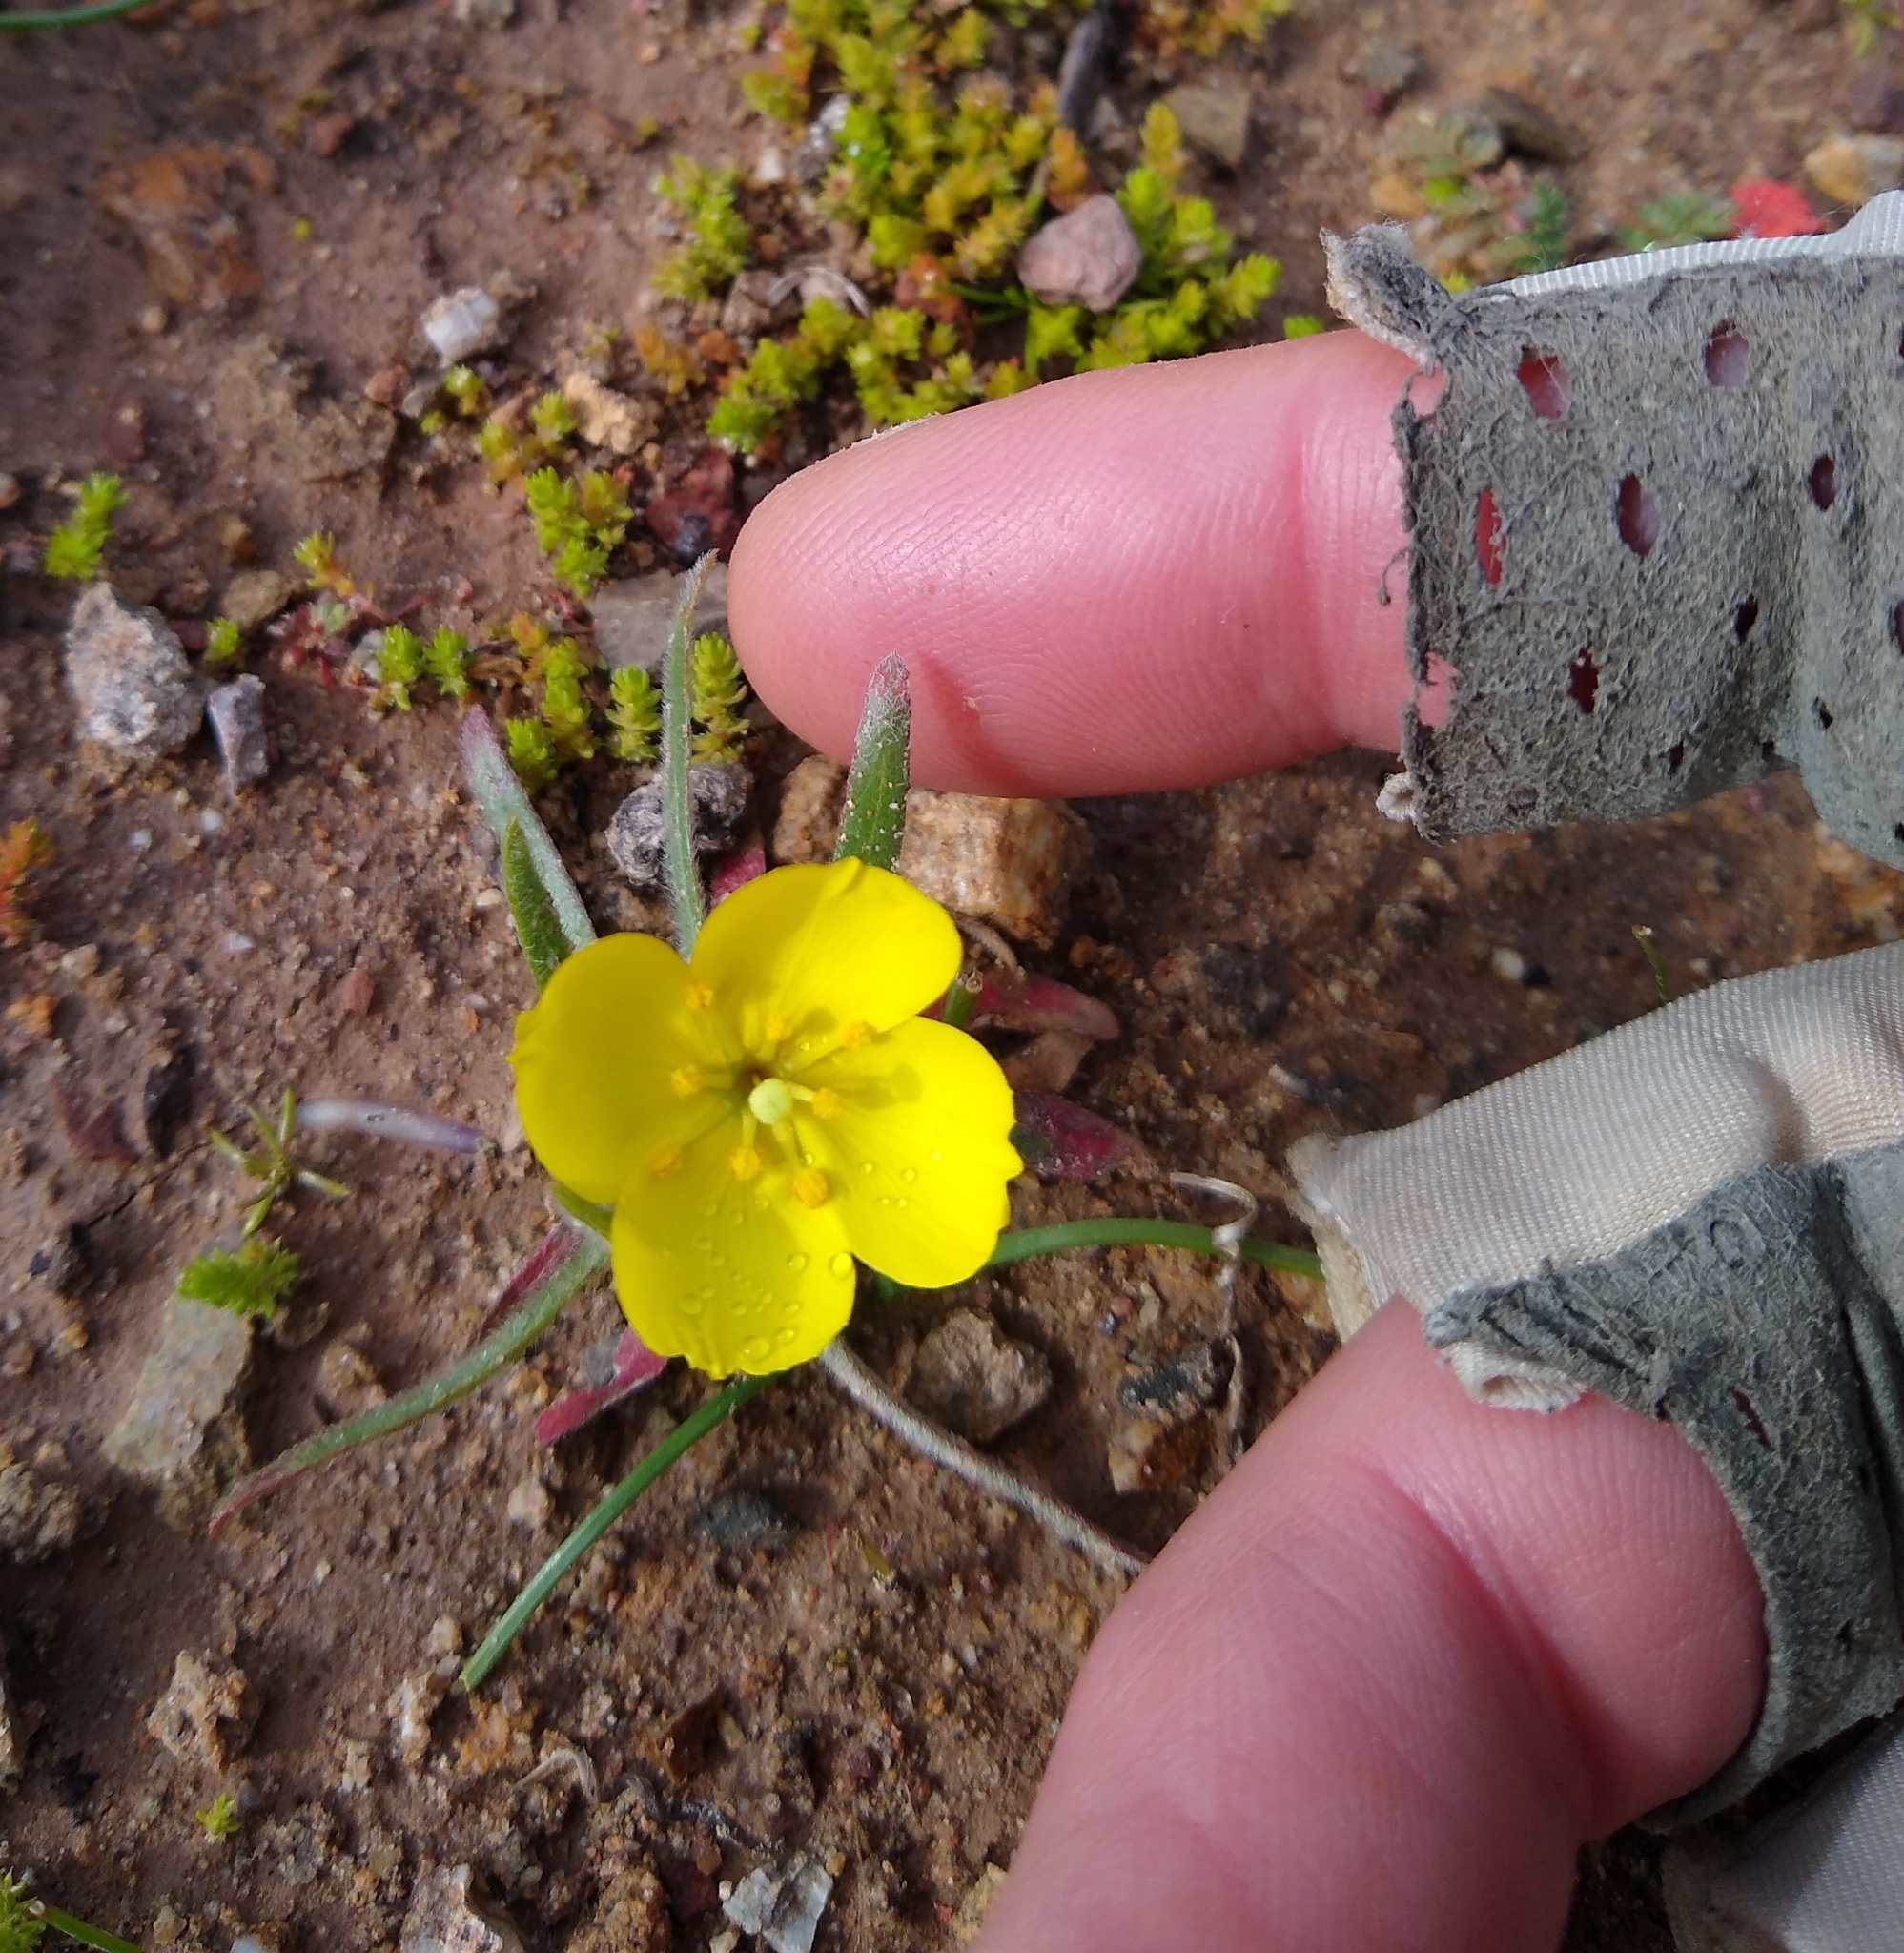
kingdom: Plantae
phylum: Tracheophyta
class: Magnoliopsida
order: Myrtales
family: Onagraceae
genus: Tetrapteron
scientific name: Tetrapteron graciliflorum
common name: Hill suncup
